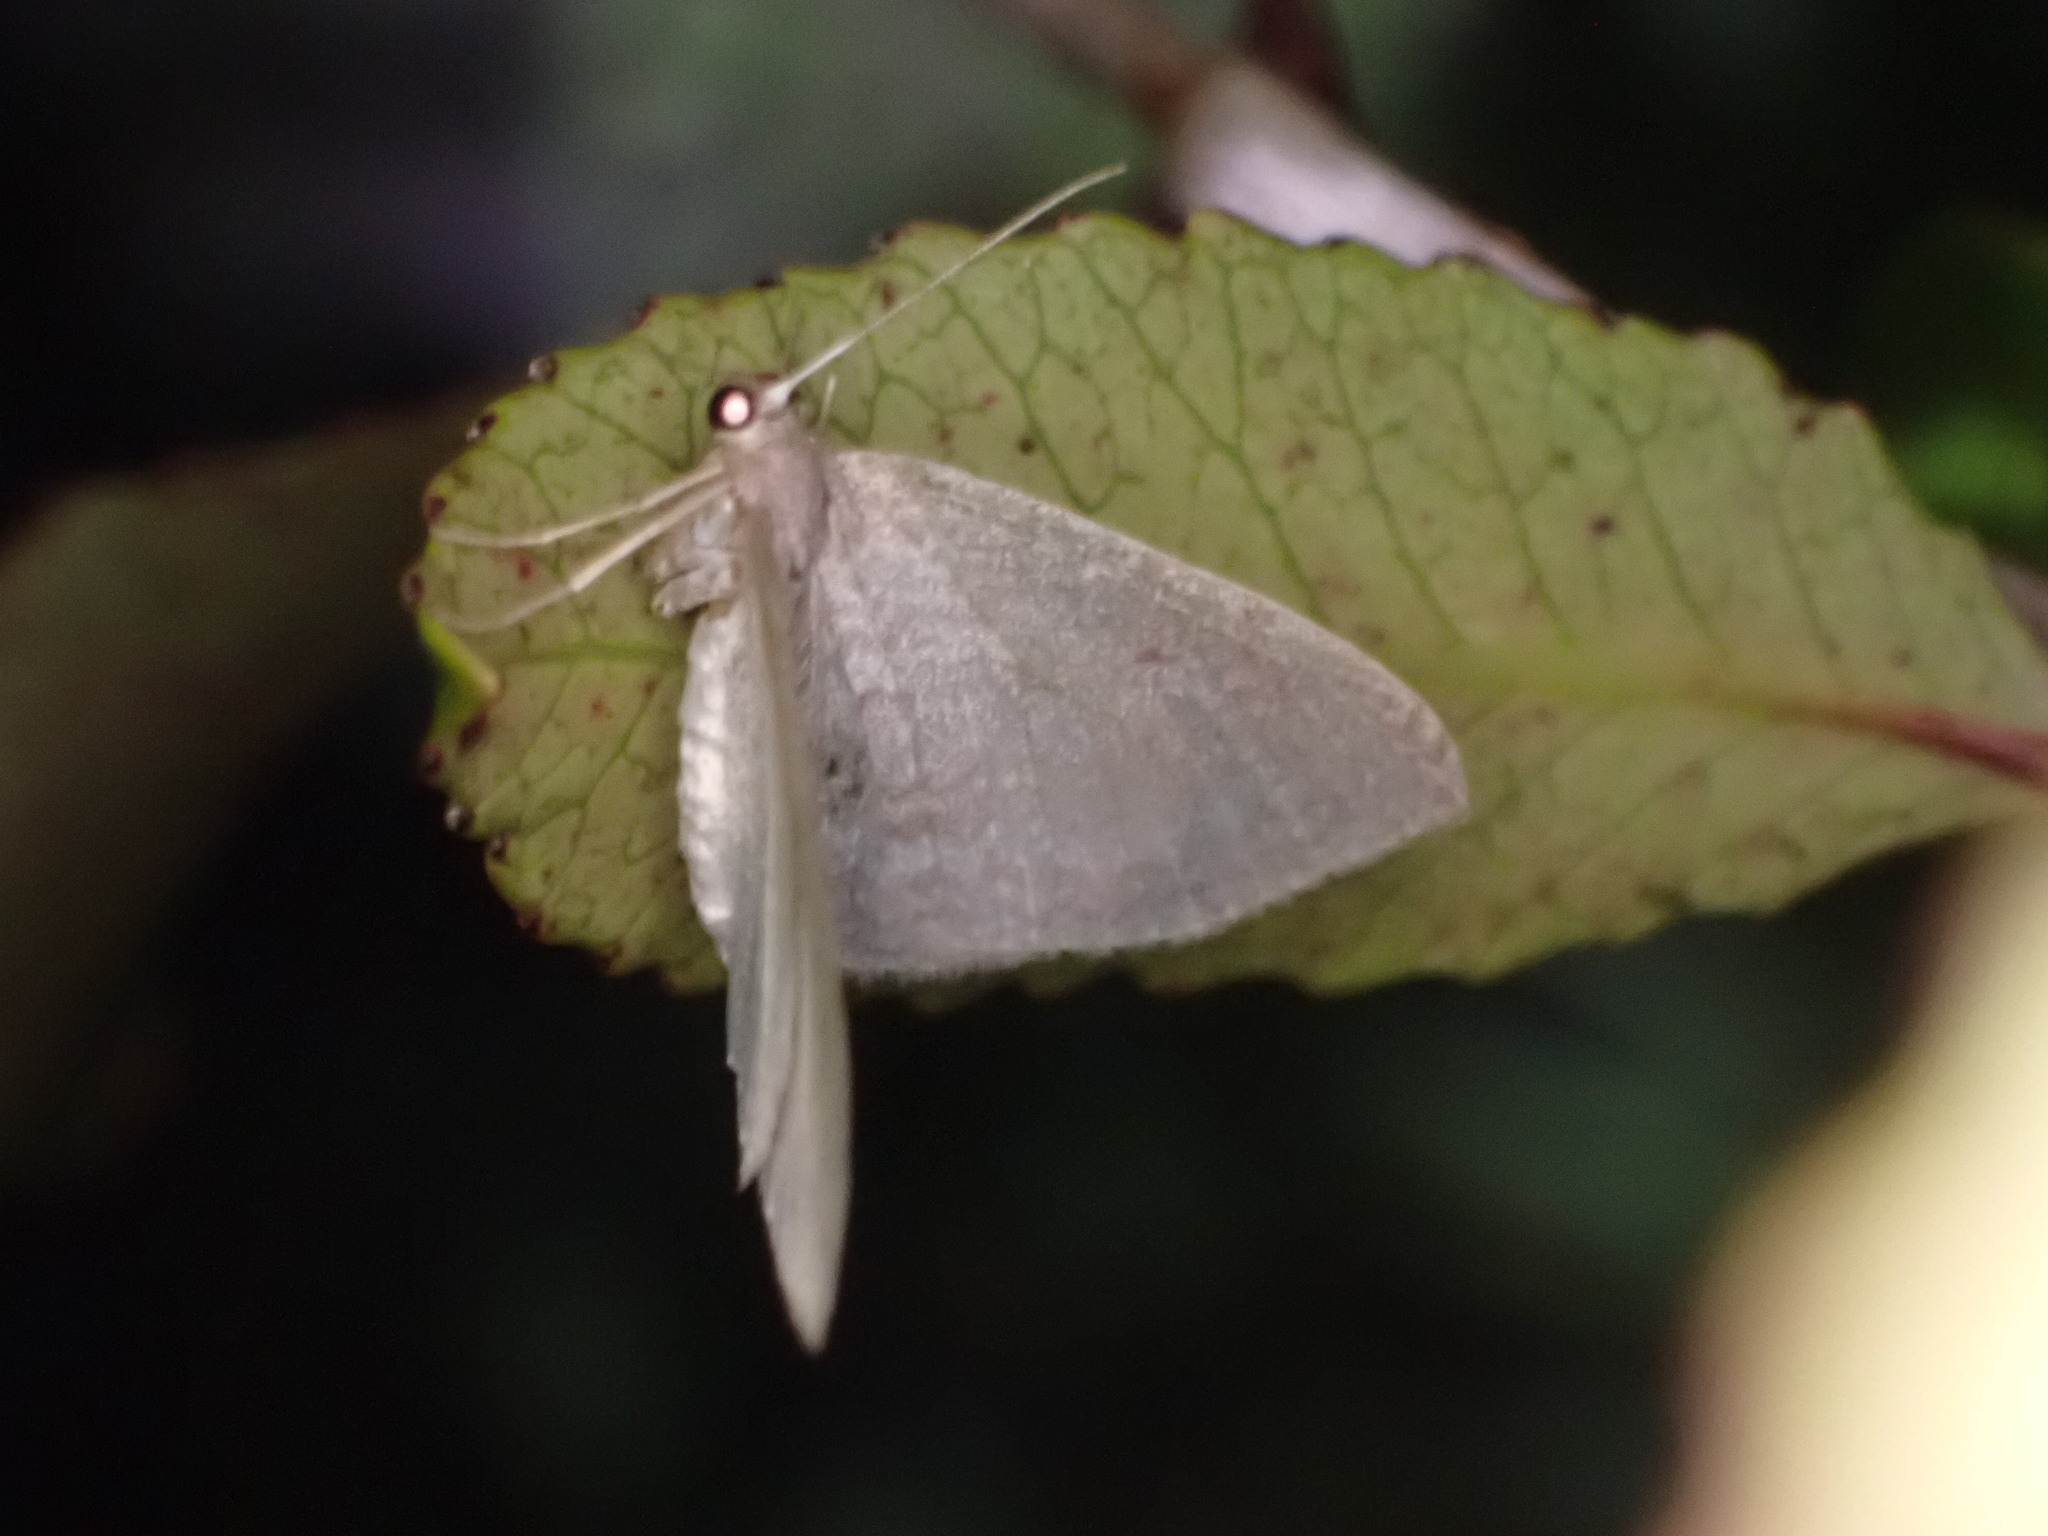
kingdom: Animalia
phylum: Arthropoda
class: Insecta
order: Lepidoptera
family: Geometridae
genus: Poecilasthena
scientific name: Poecilasthena pulchraria
